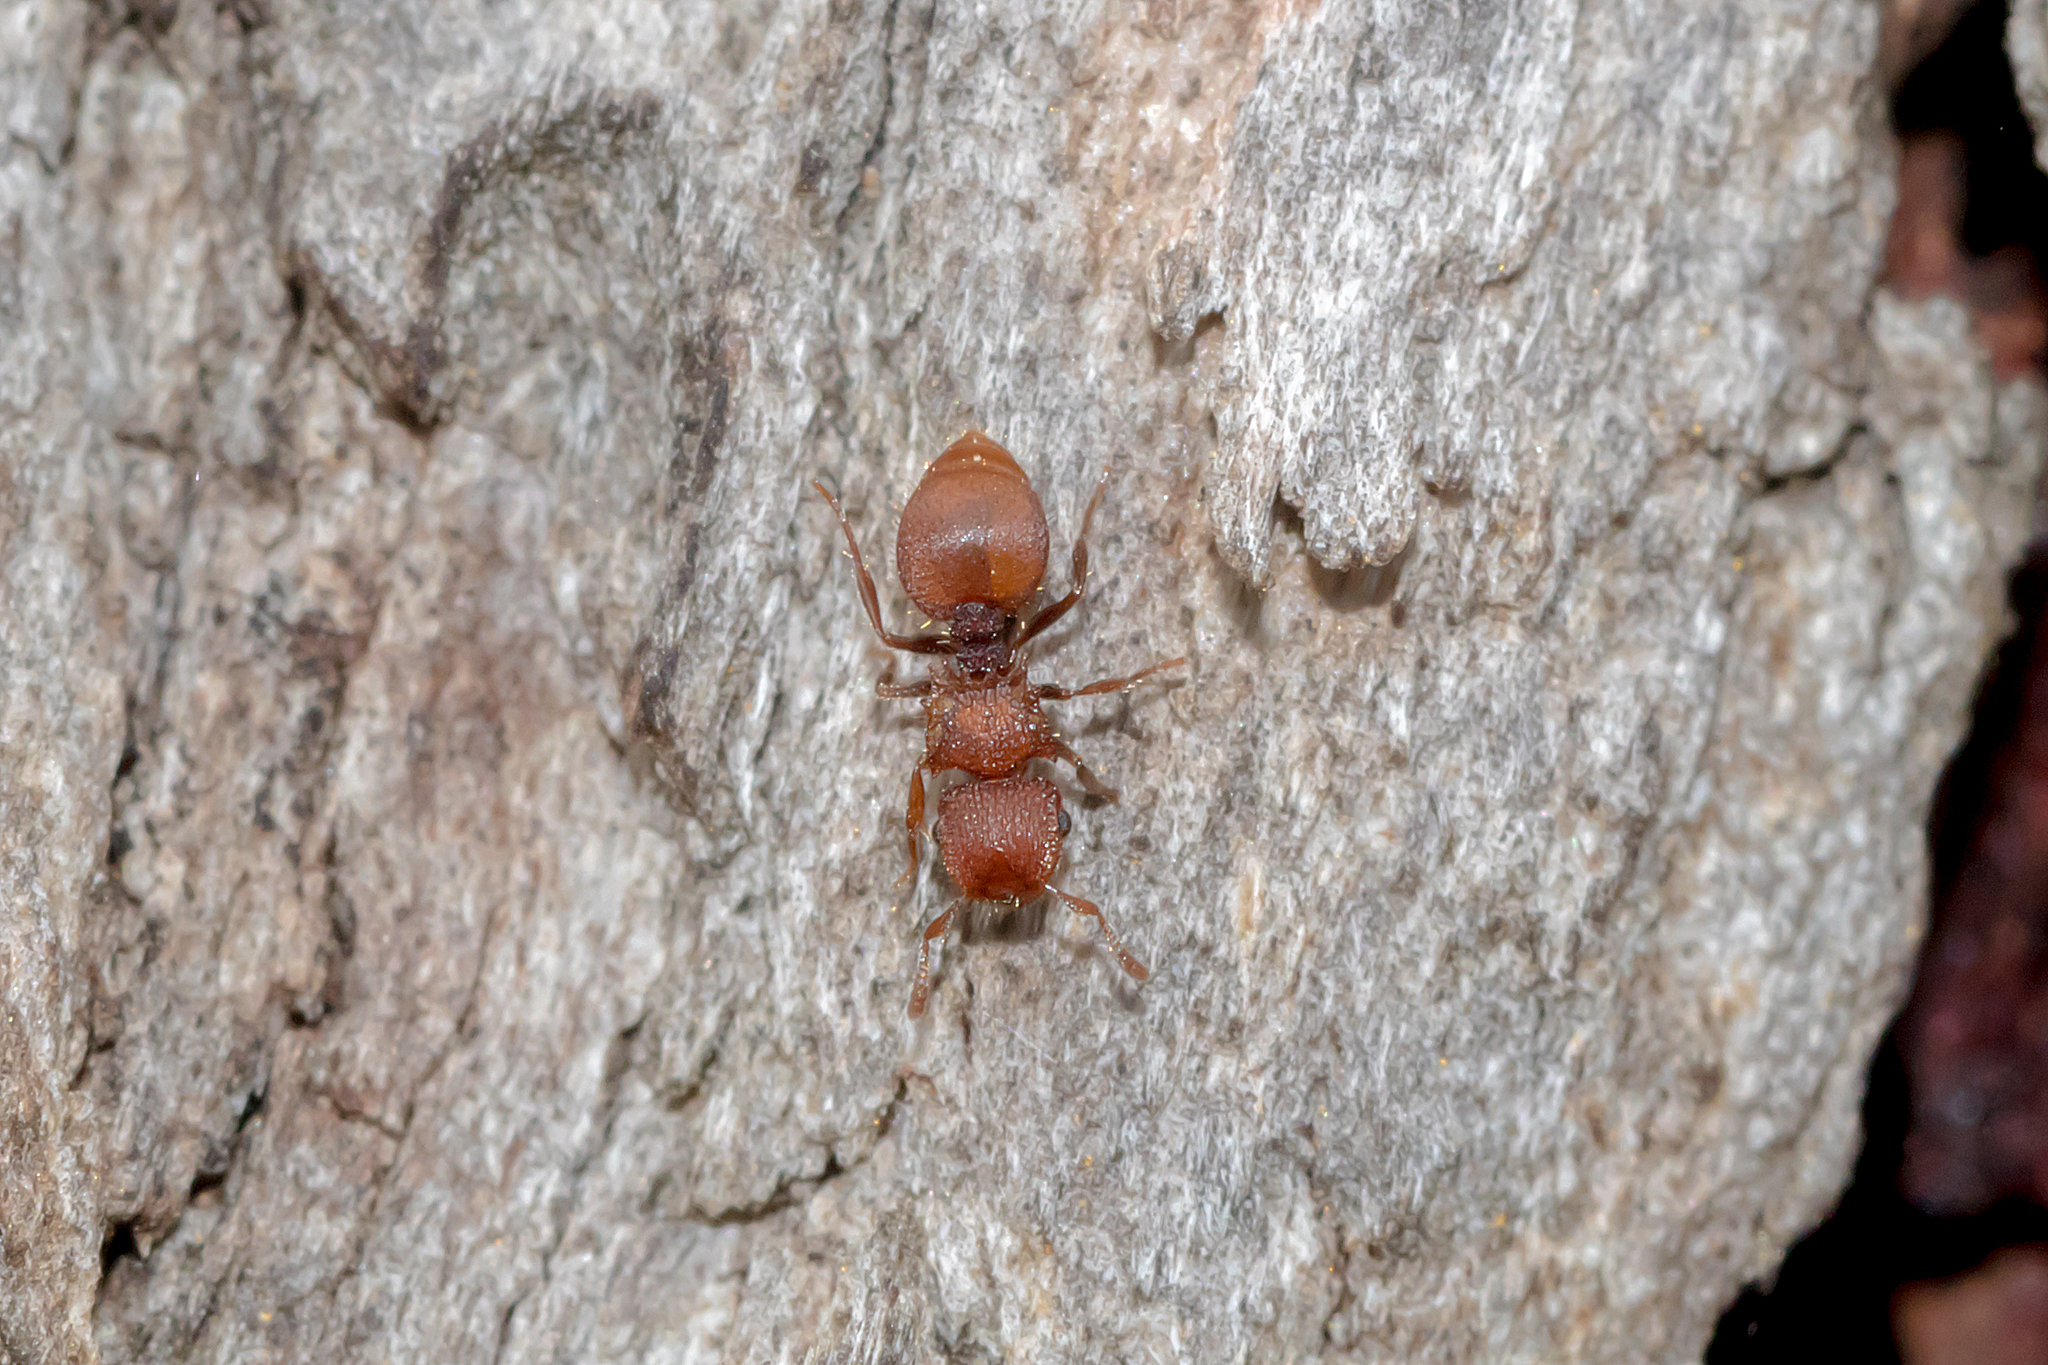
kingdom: Animalia
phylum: Arthropoda
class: Insecta
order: Hymenoptera
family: Formicidae
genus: Meranoplus
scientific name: Meranoplus oceanicus
